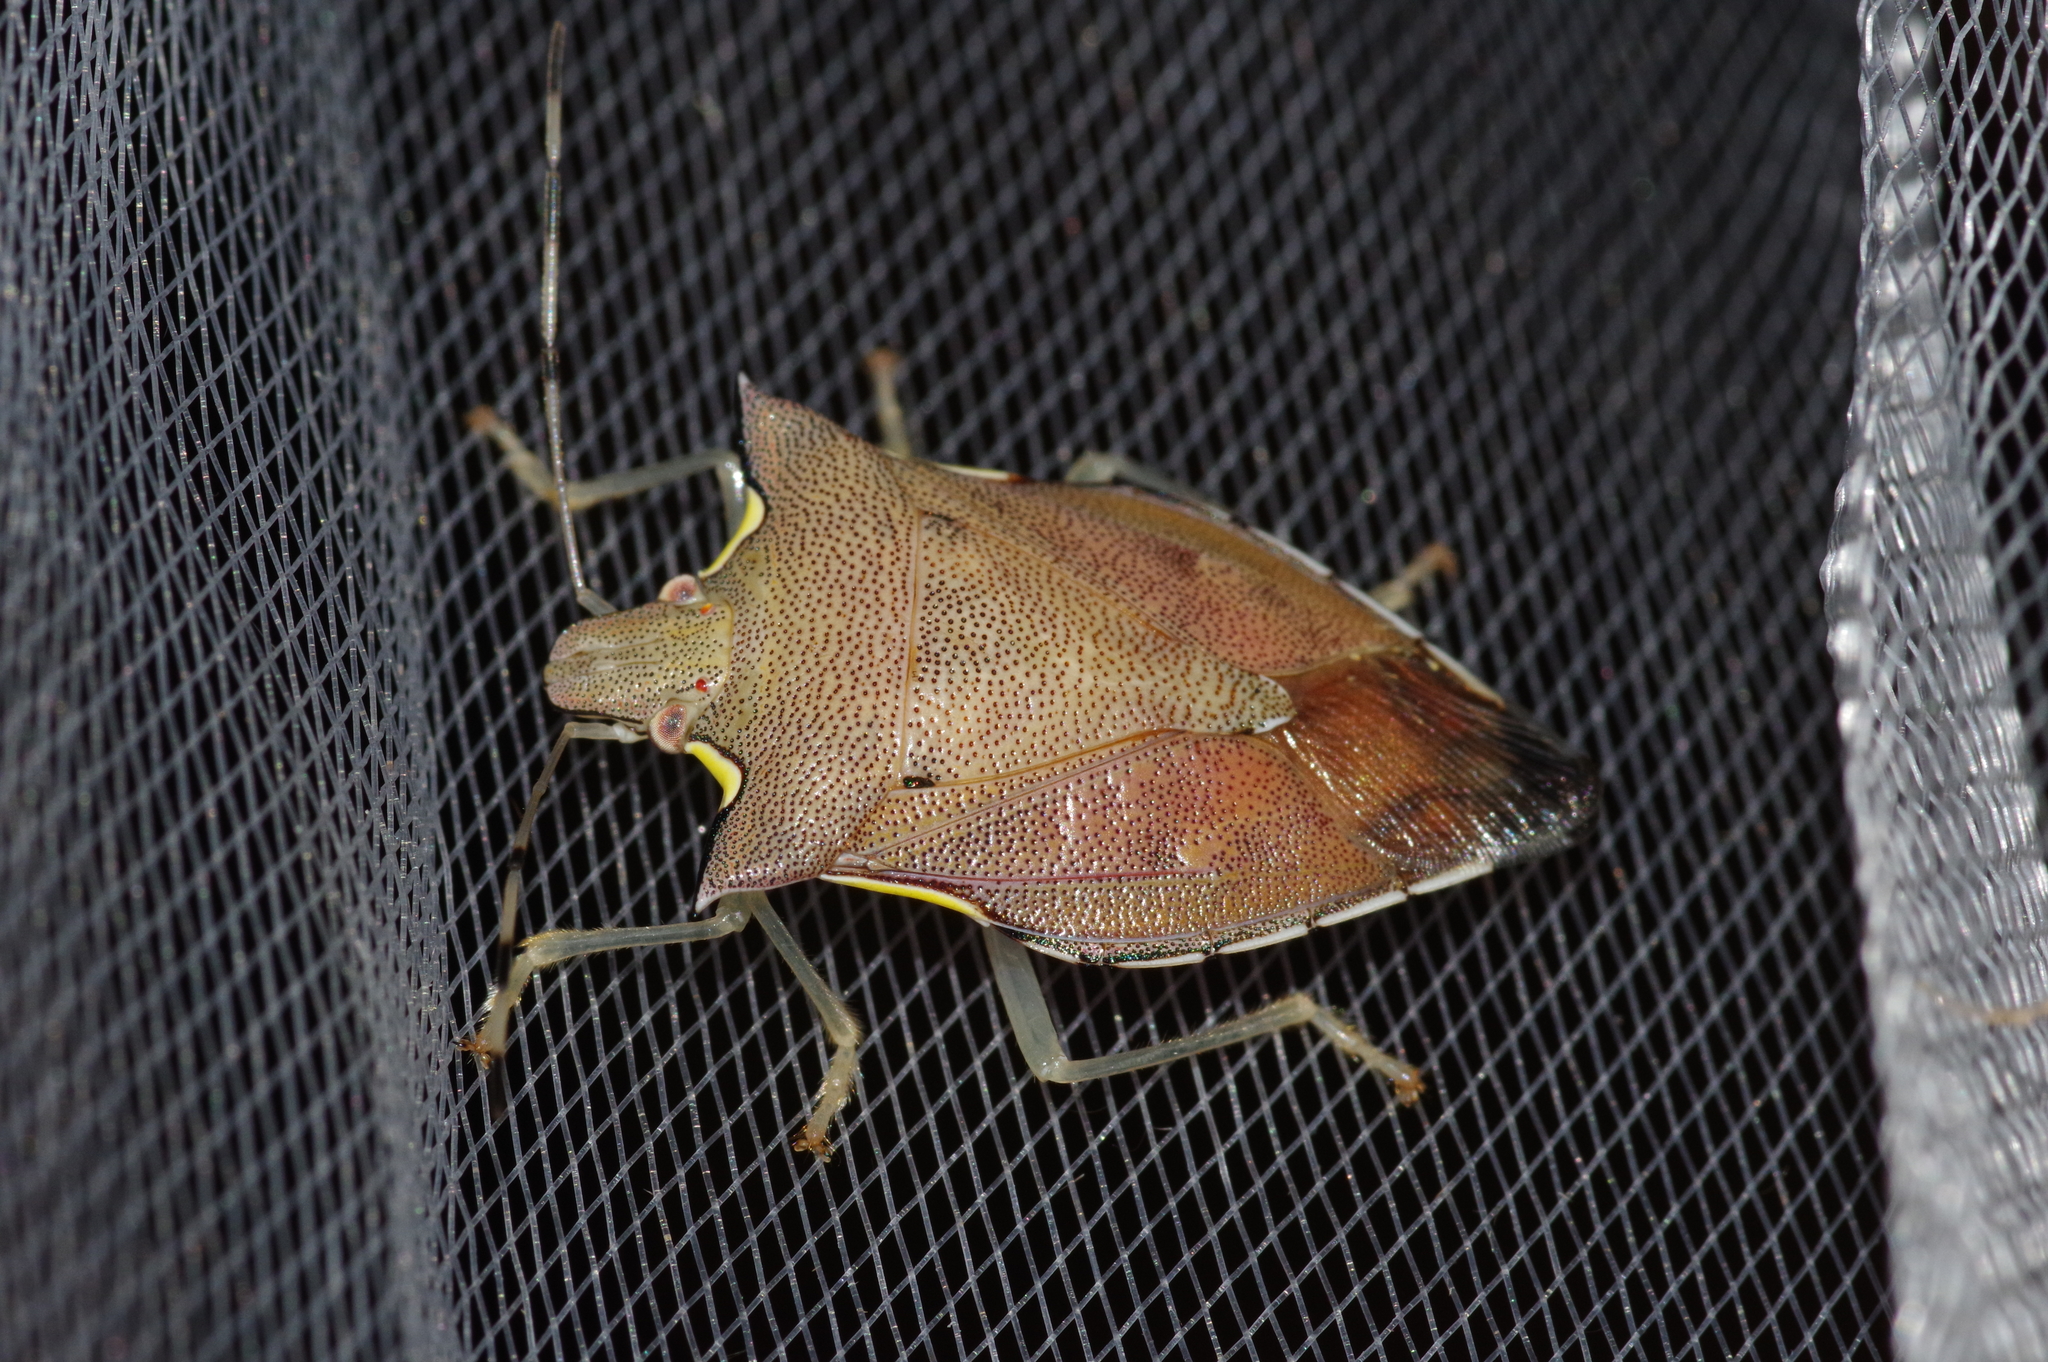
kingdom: Animalia
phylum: Arthropoda
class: Insecta
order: Hemiptera
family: Pentatomidae
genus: Amblycara
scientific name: Amblycara gladiatoria
